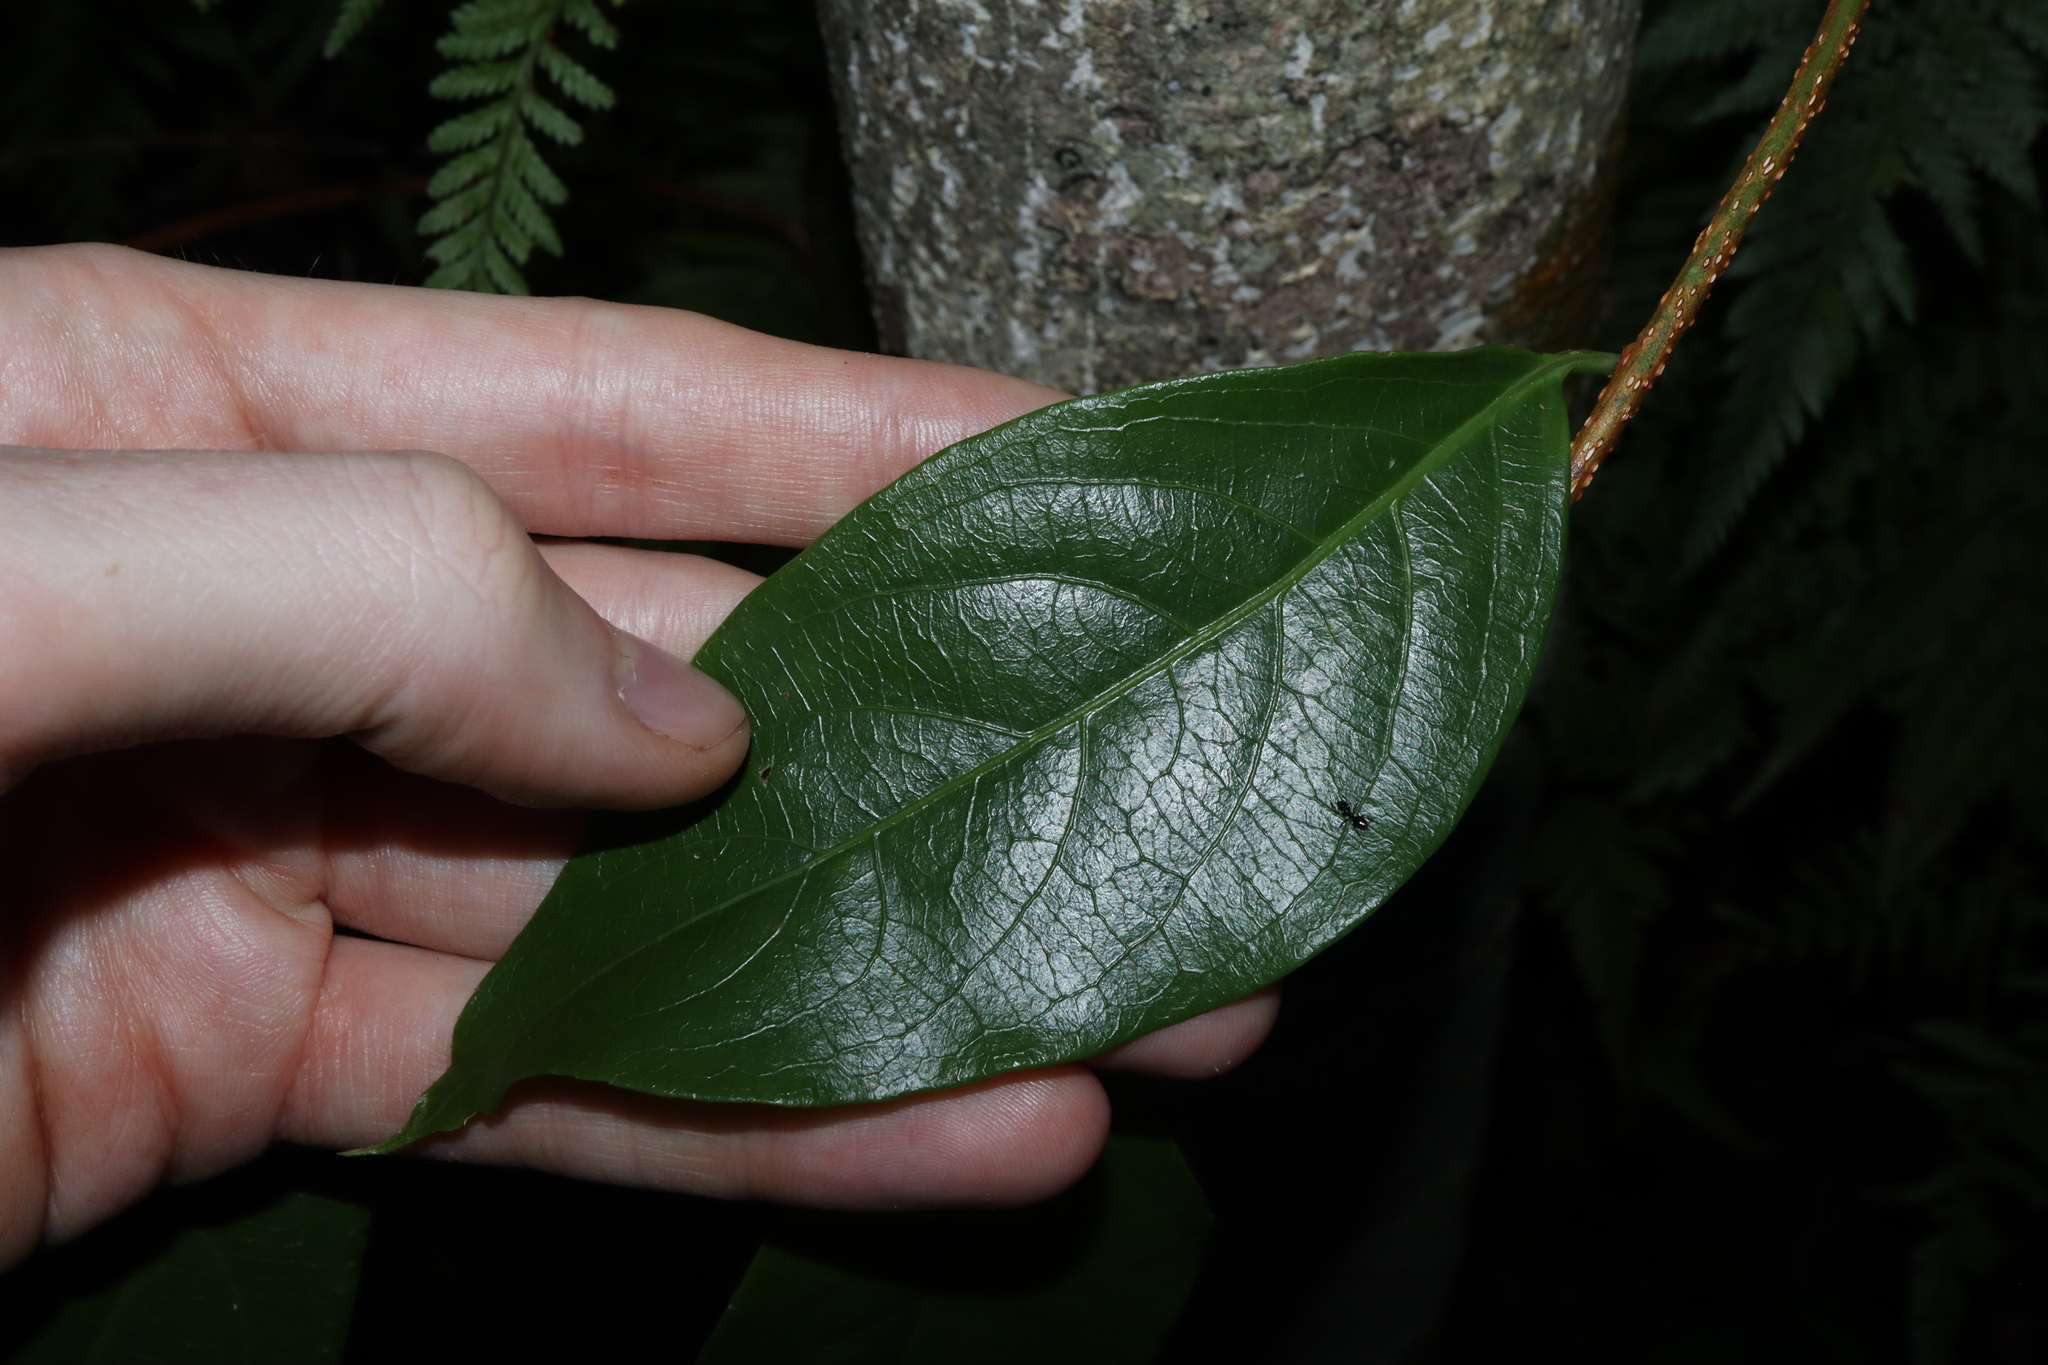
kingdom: Plantae
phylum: Tracheophyta
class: Magnoliopsida
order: Celastrales
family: Celastraceae
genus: Celastrus
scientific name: Celastrus subspicatus
